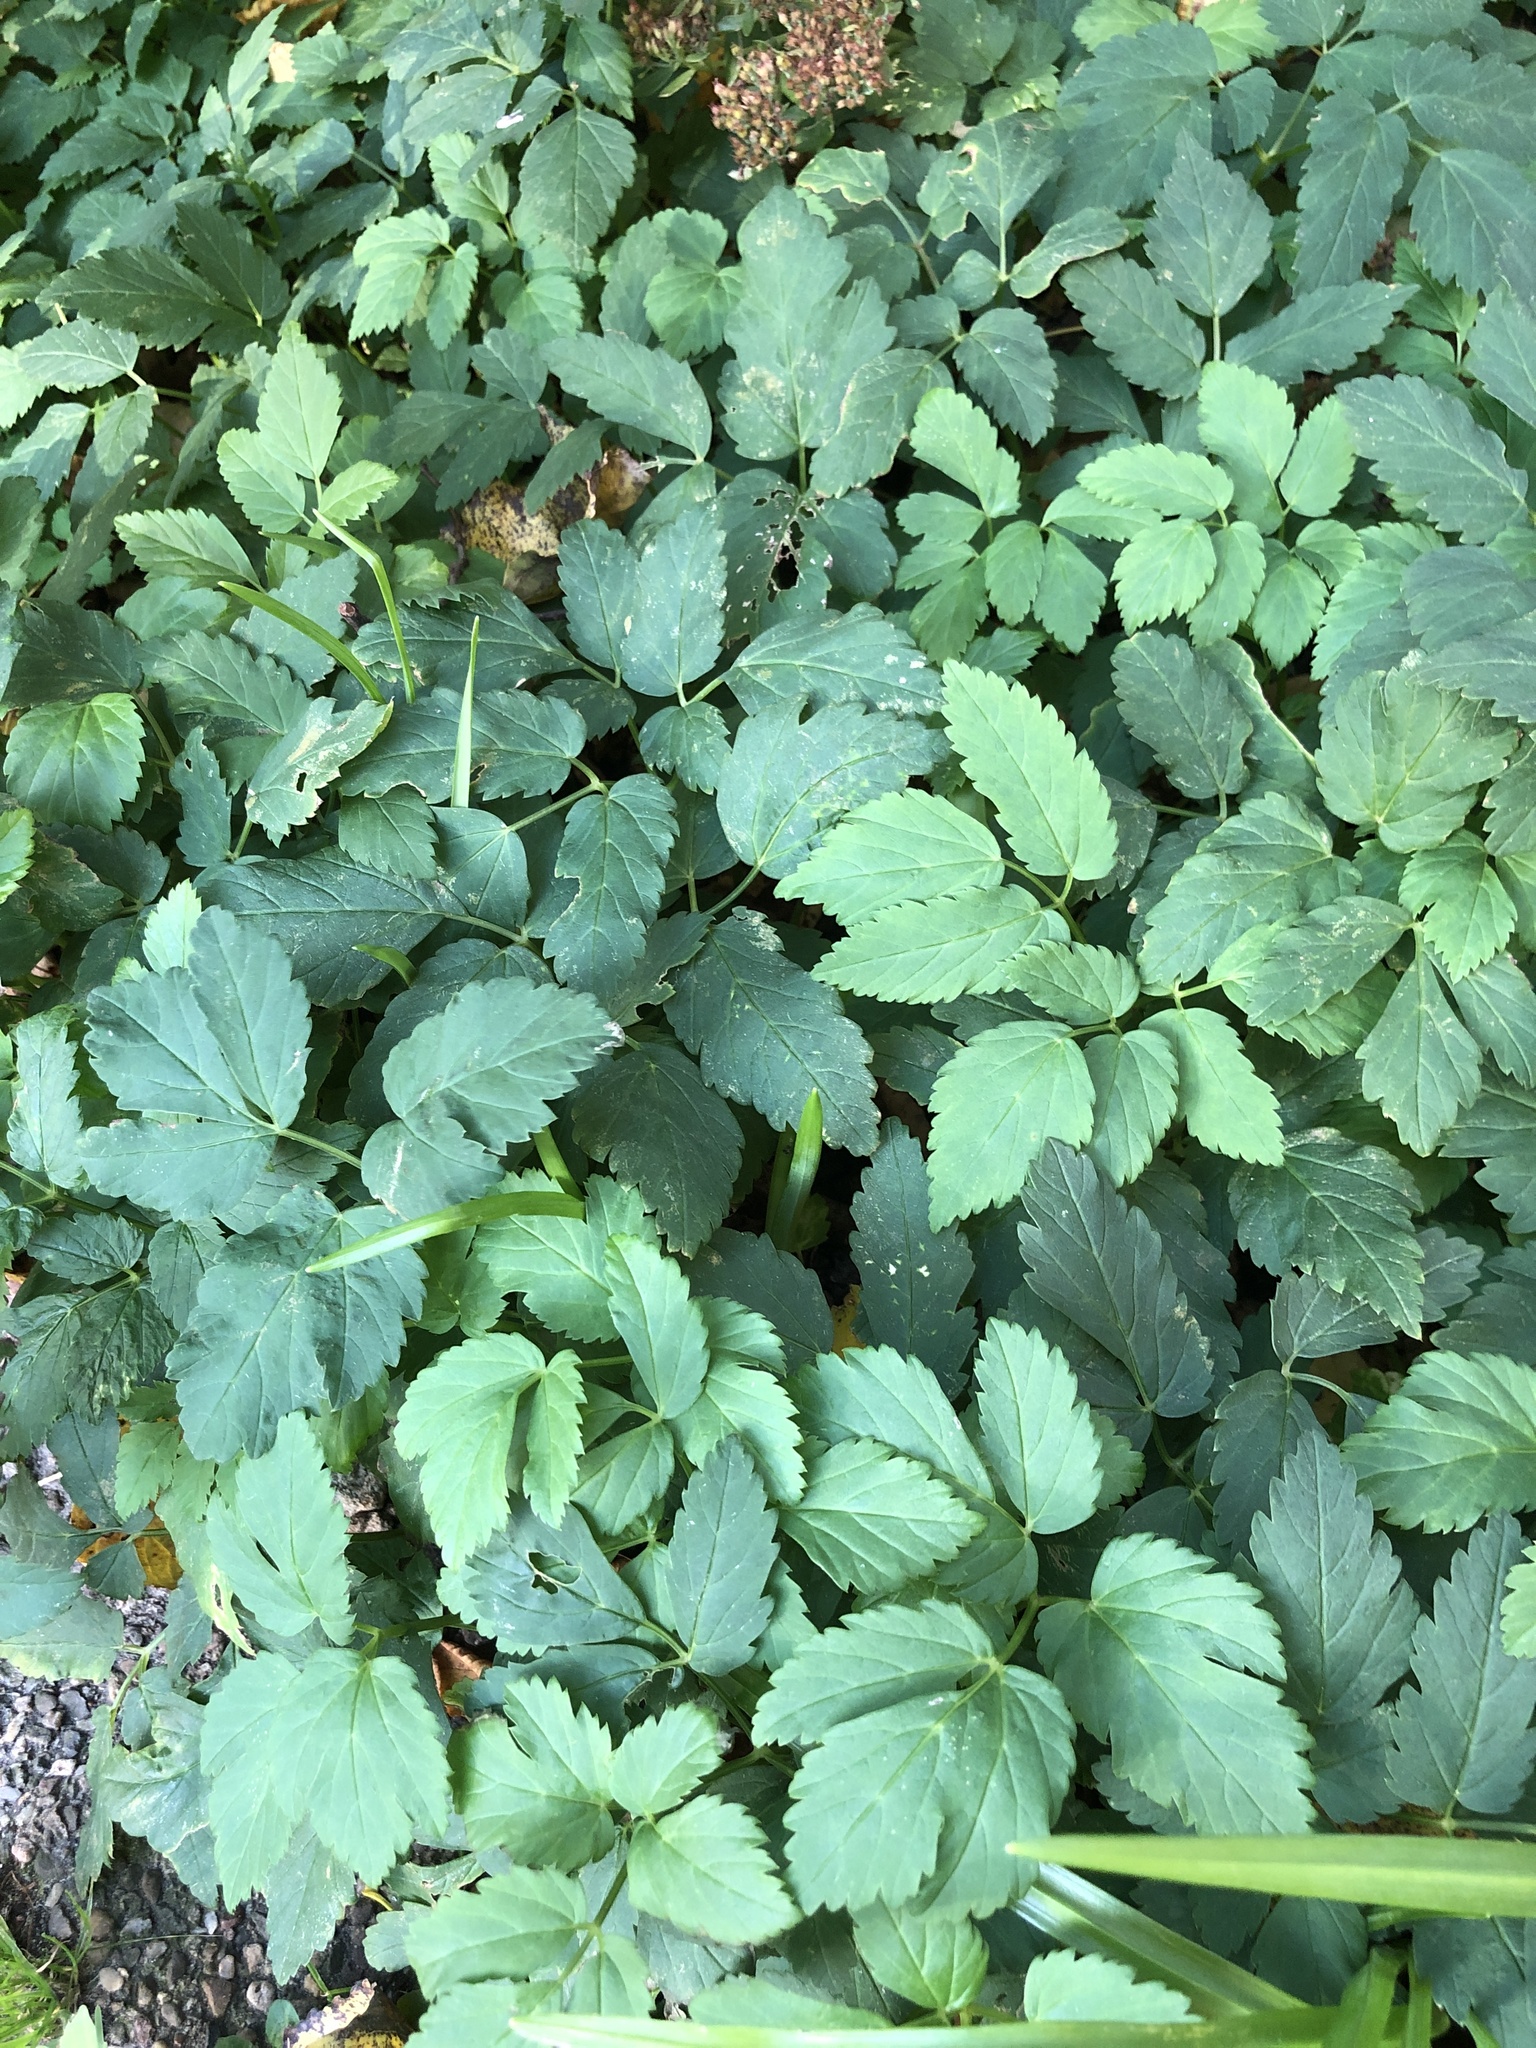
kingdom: Plantae
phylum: Tracheophyta
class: Magnoliopsida
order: Apiales
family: Apiaceae
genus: Aegopodium
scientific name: Aegopodium podagraria
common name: Ground-elder
